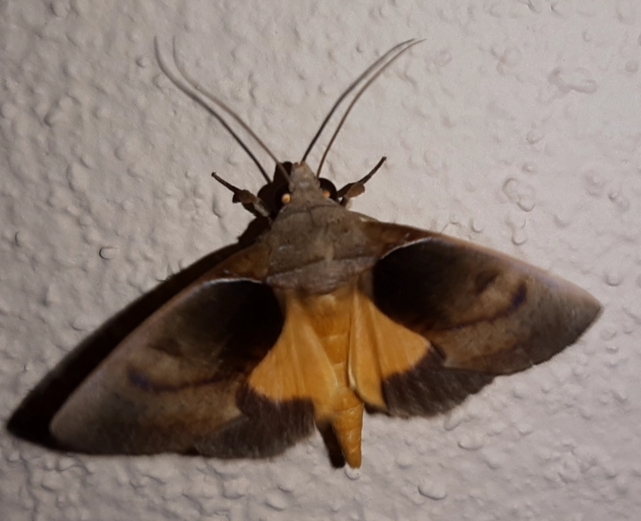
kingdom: Animalia
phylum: Arthropoda
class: Insecta
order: Lepidoptera
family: Erebidae
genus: Gonodonta
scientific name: Gonodonta sicheas
